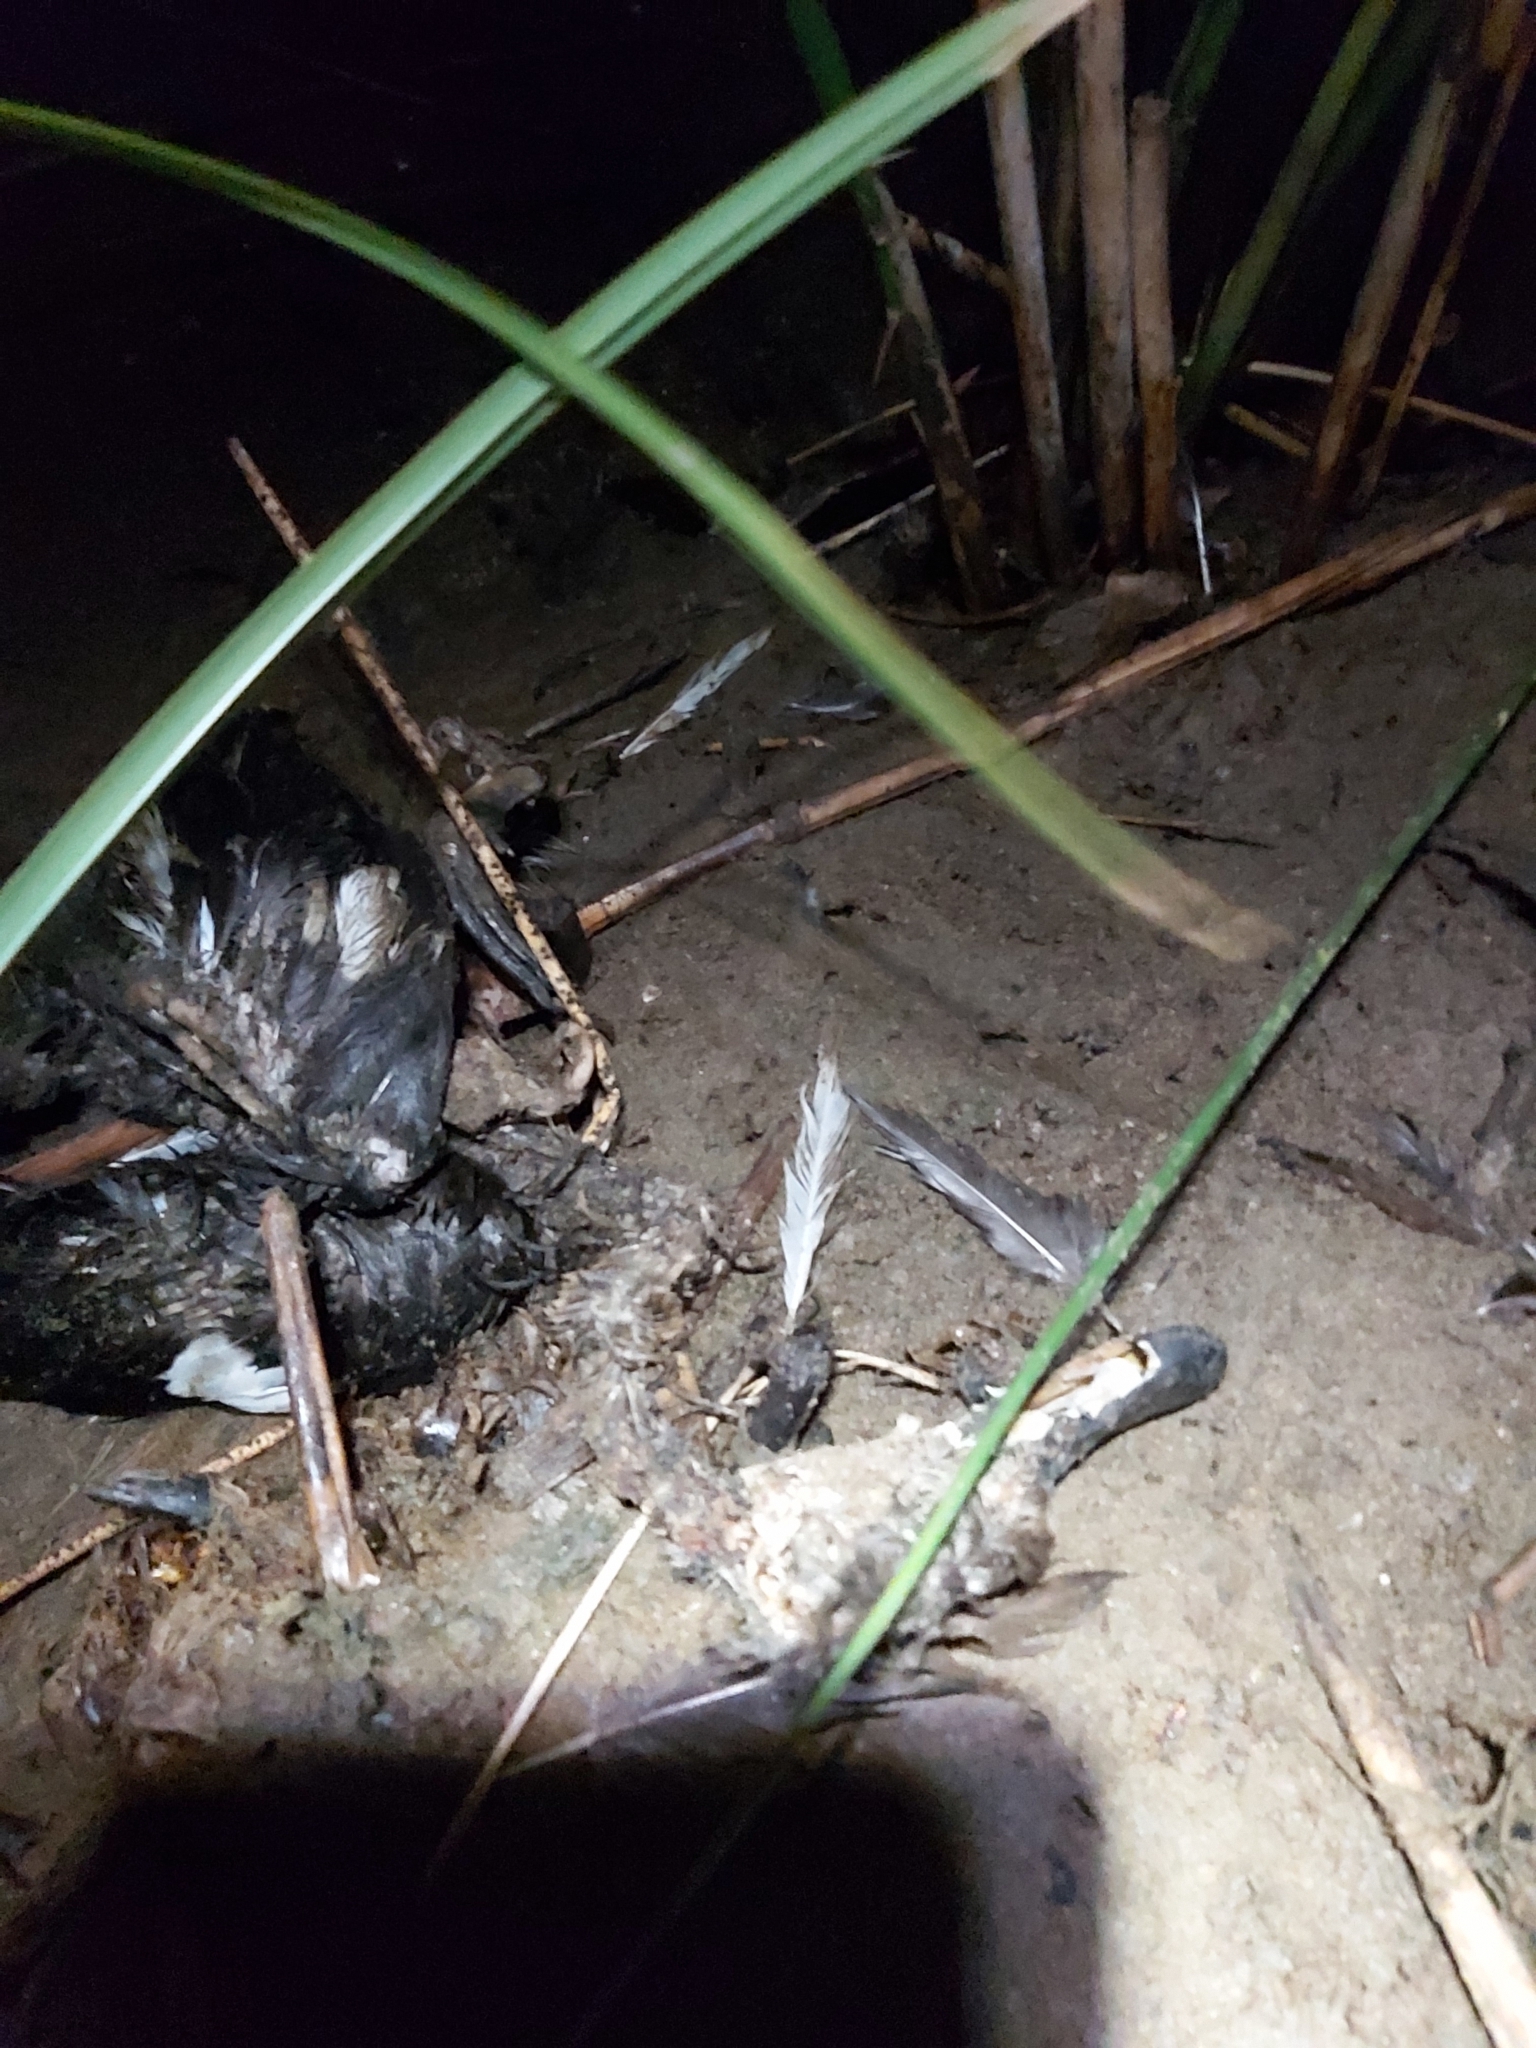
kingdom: Animalia
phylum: Chordata
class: Aves
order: Anseriformes
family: Anatidae
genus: Anas
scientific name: Anas superciliosa
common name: Pacific black duck
